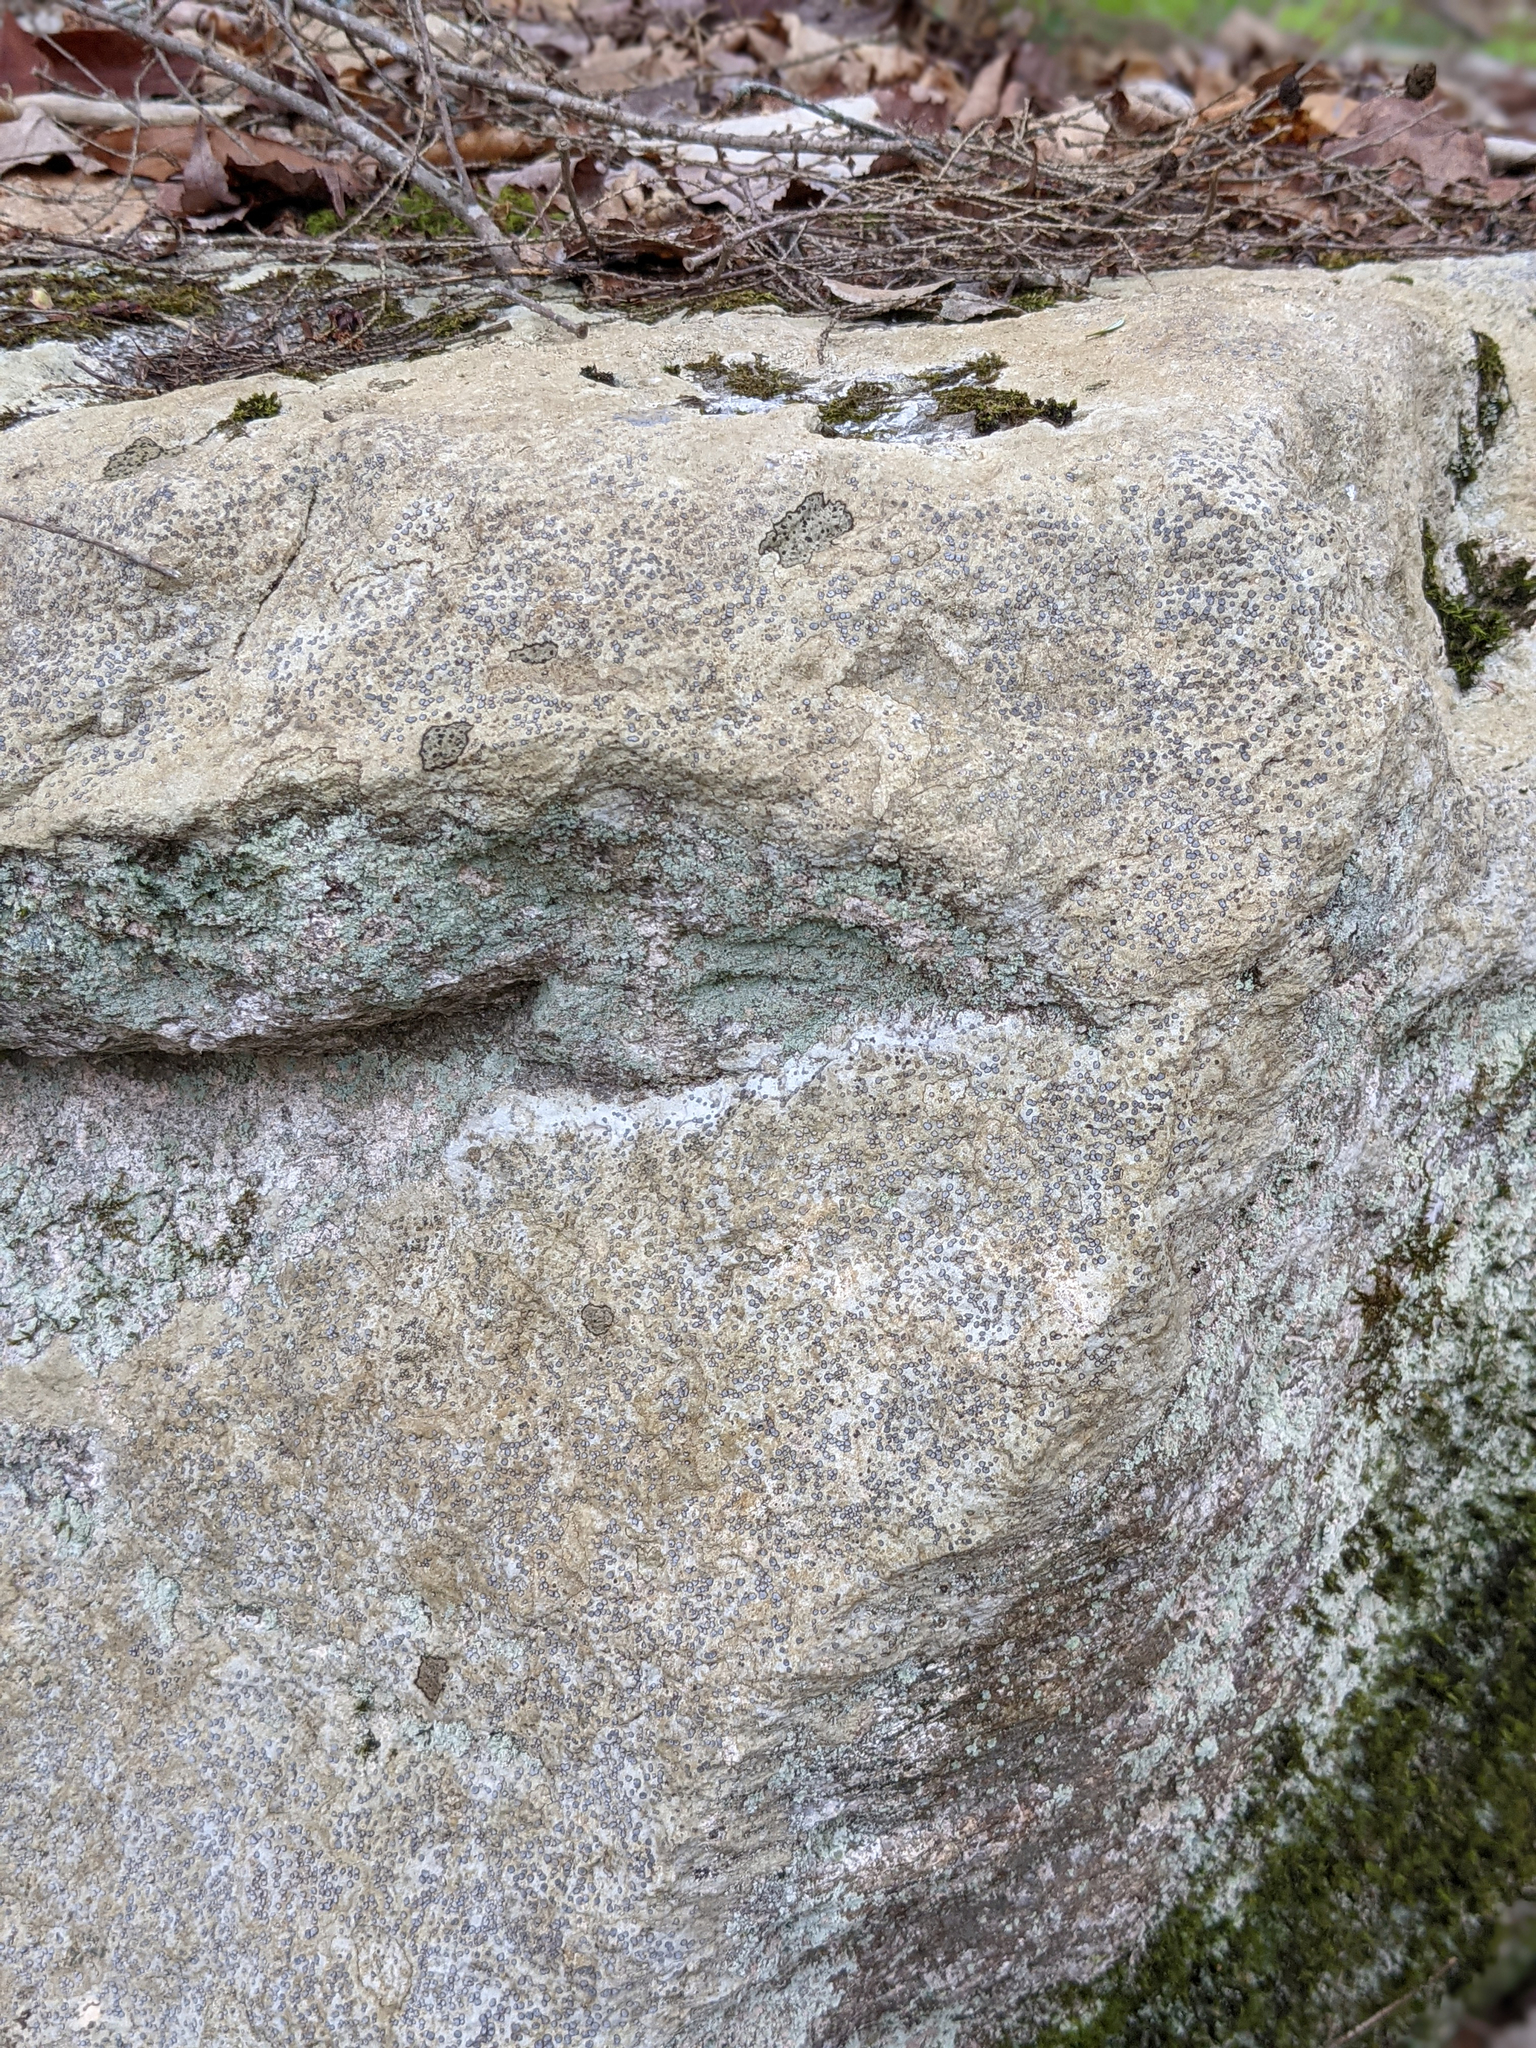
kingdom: Fungi
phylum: Ascomycota
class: Lecanoromycetes
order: Lecideales
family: Lecideaceae
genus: Porpidia
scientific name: Porpidia albocaerulescens
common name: Smokey-eyed boulder lichen
